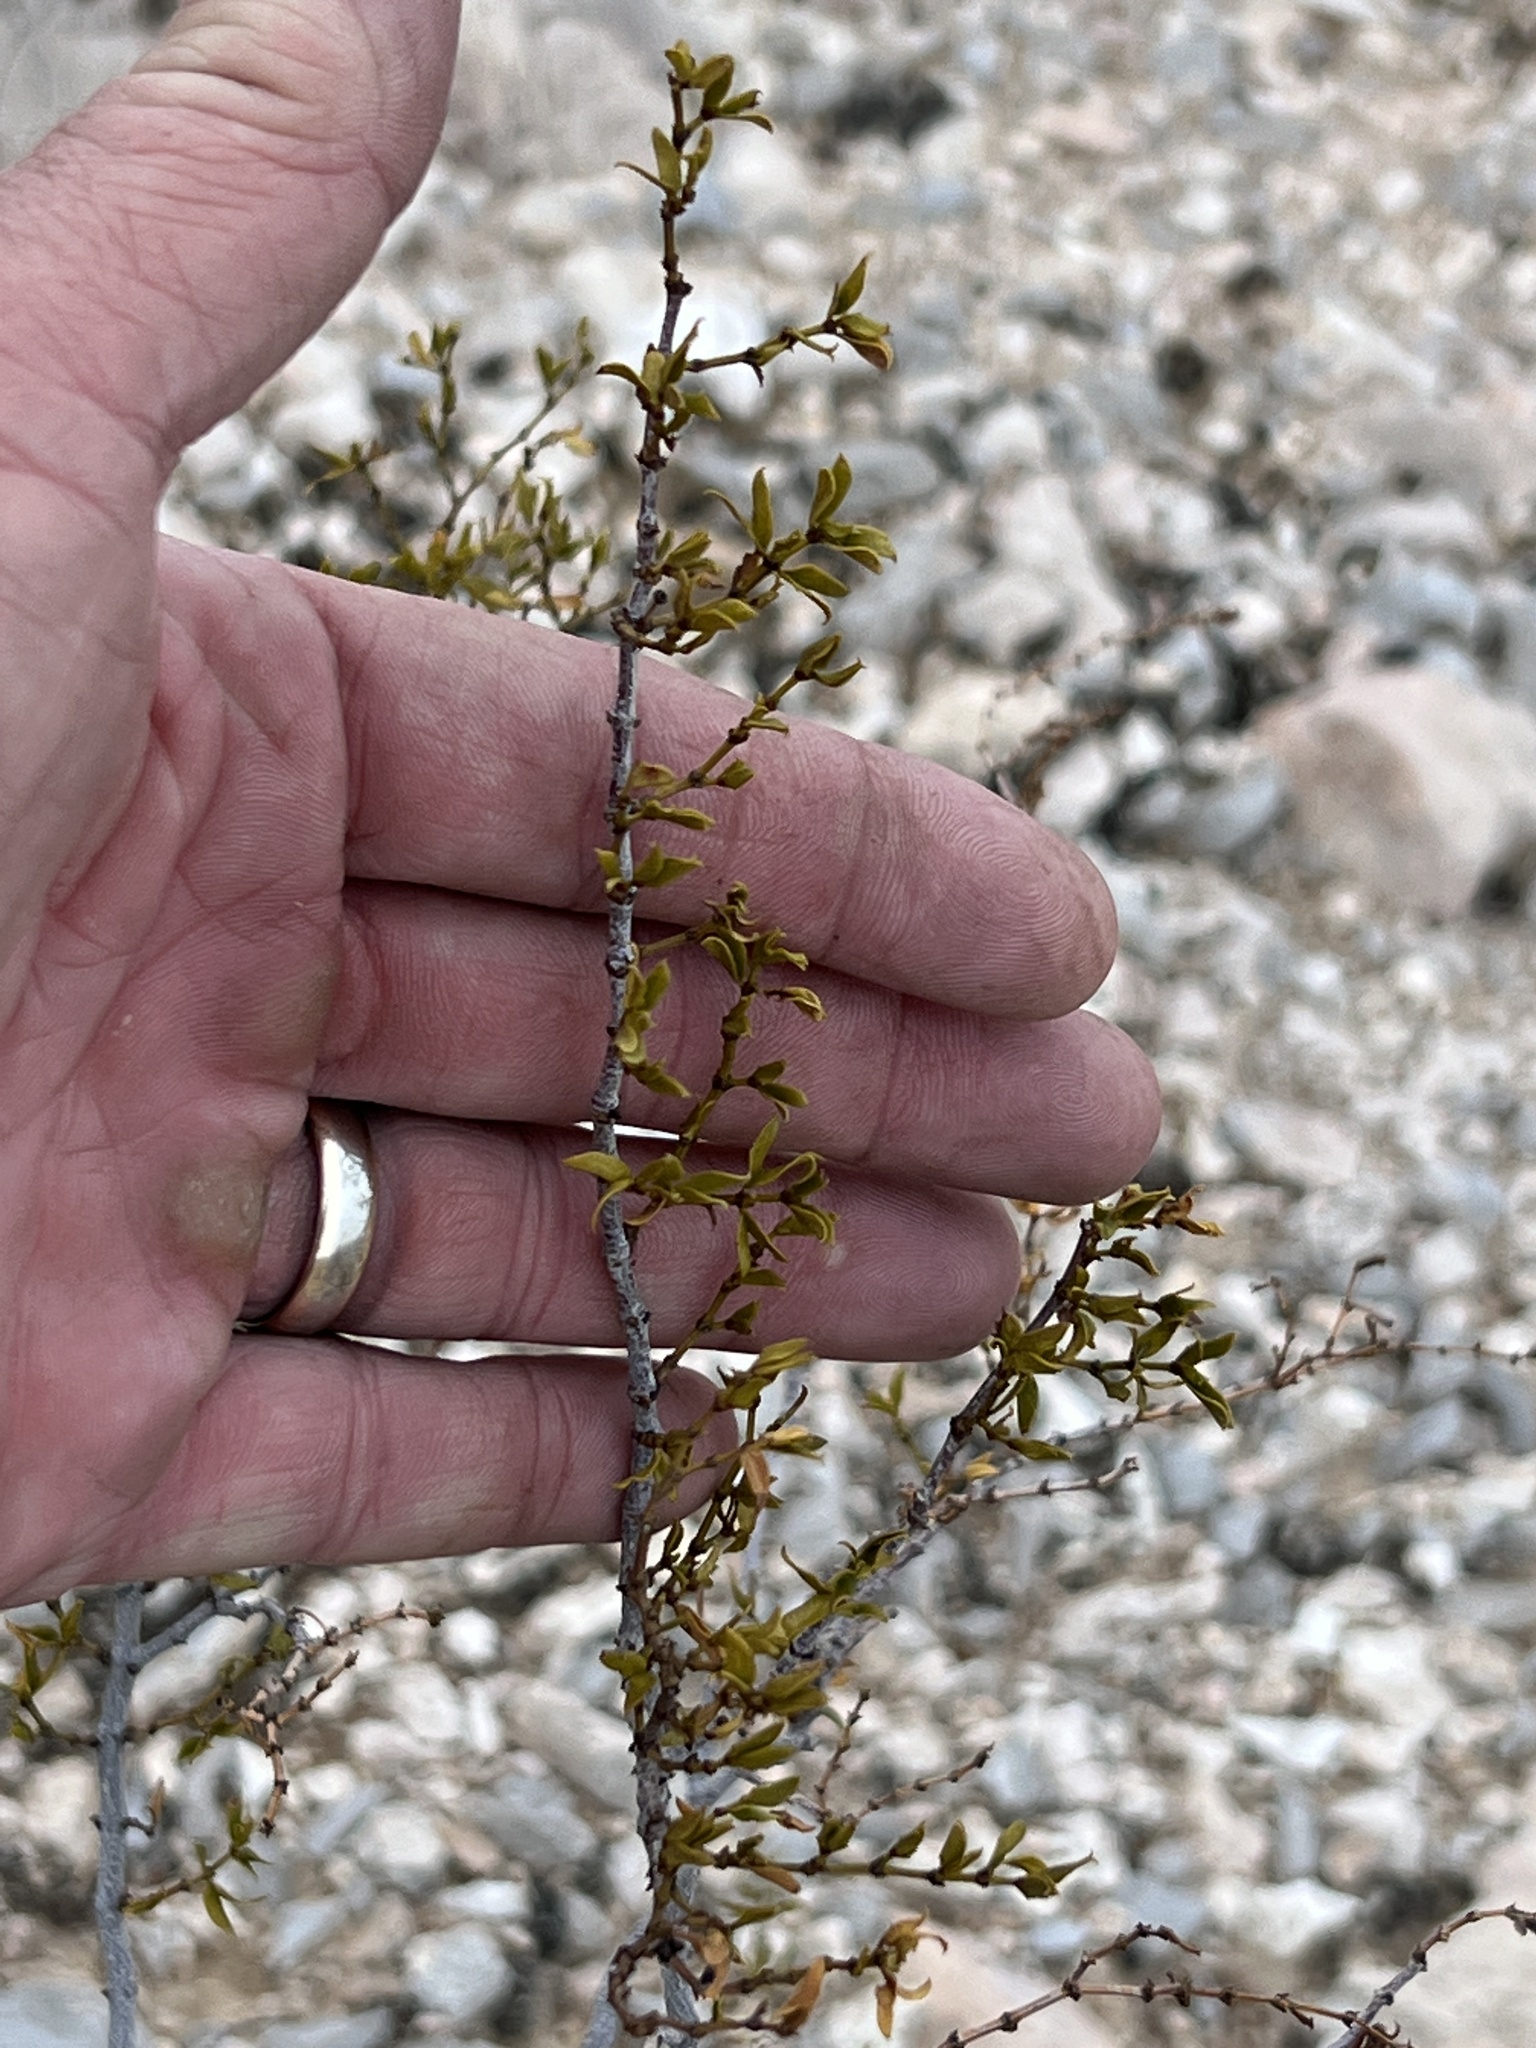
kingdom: Plantae
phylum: Tracheophyta
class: Magnoliopsida
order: Zygophyllales
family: Zygophyllaceae
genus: Larrea
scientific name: Larrea tridentata
